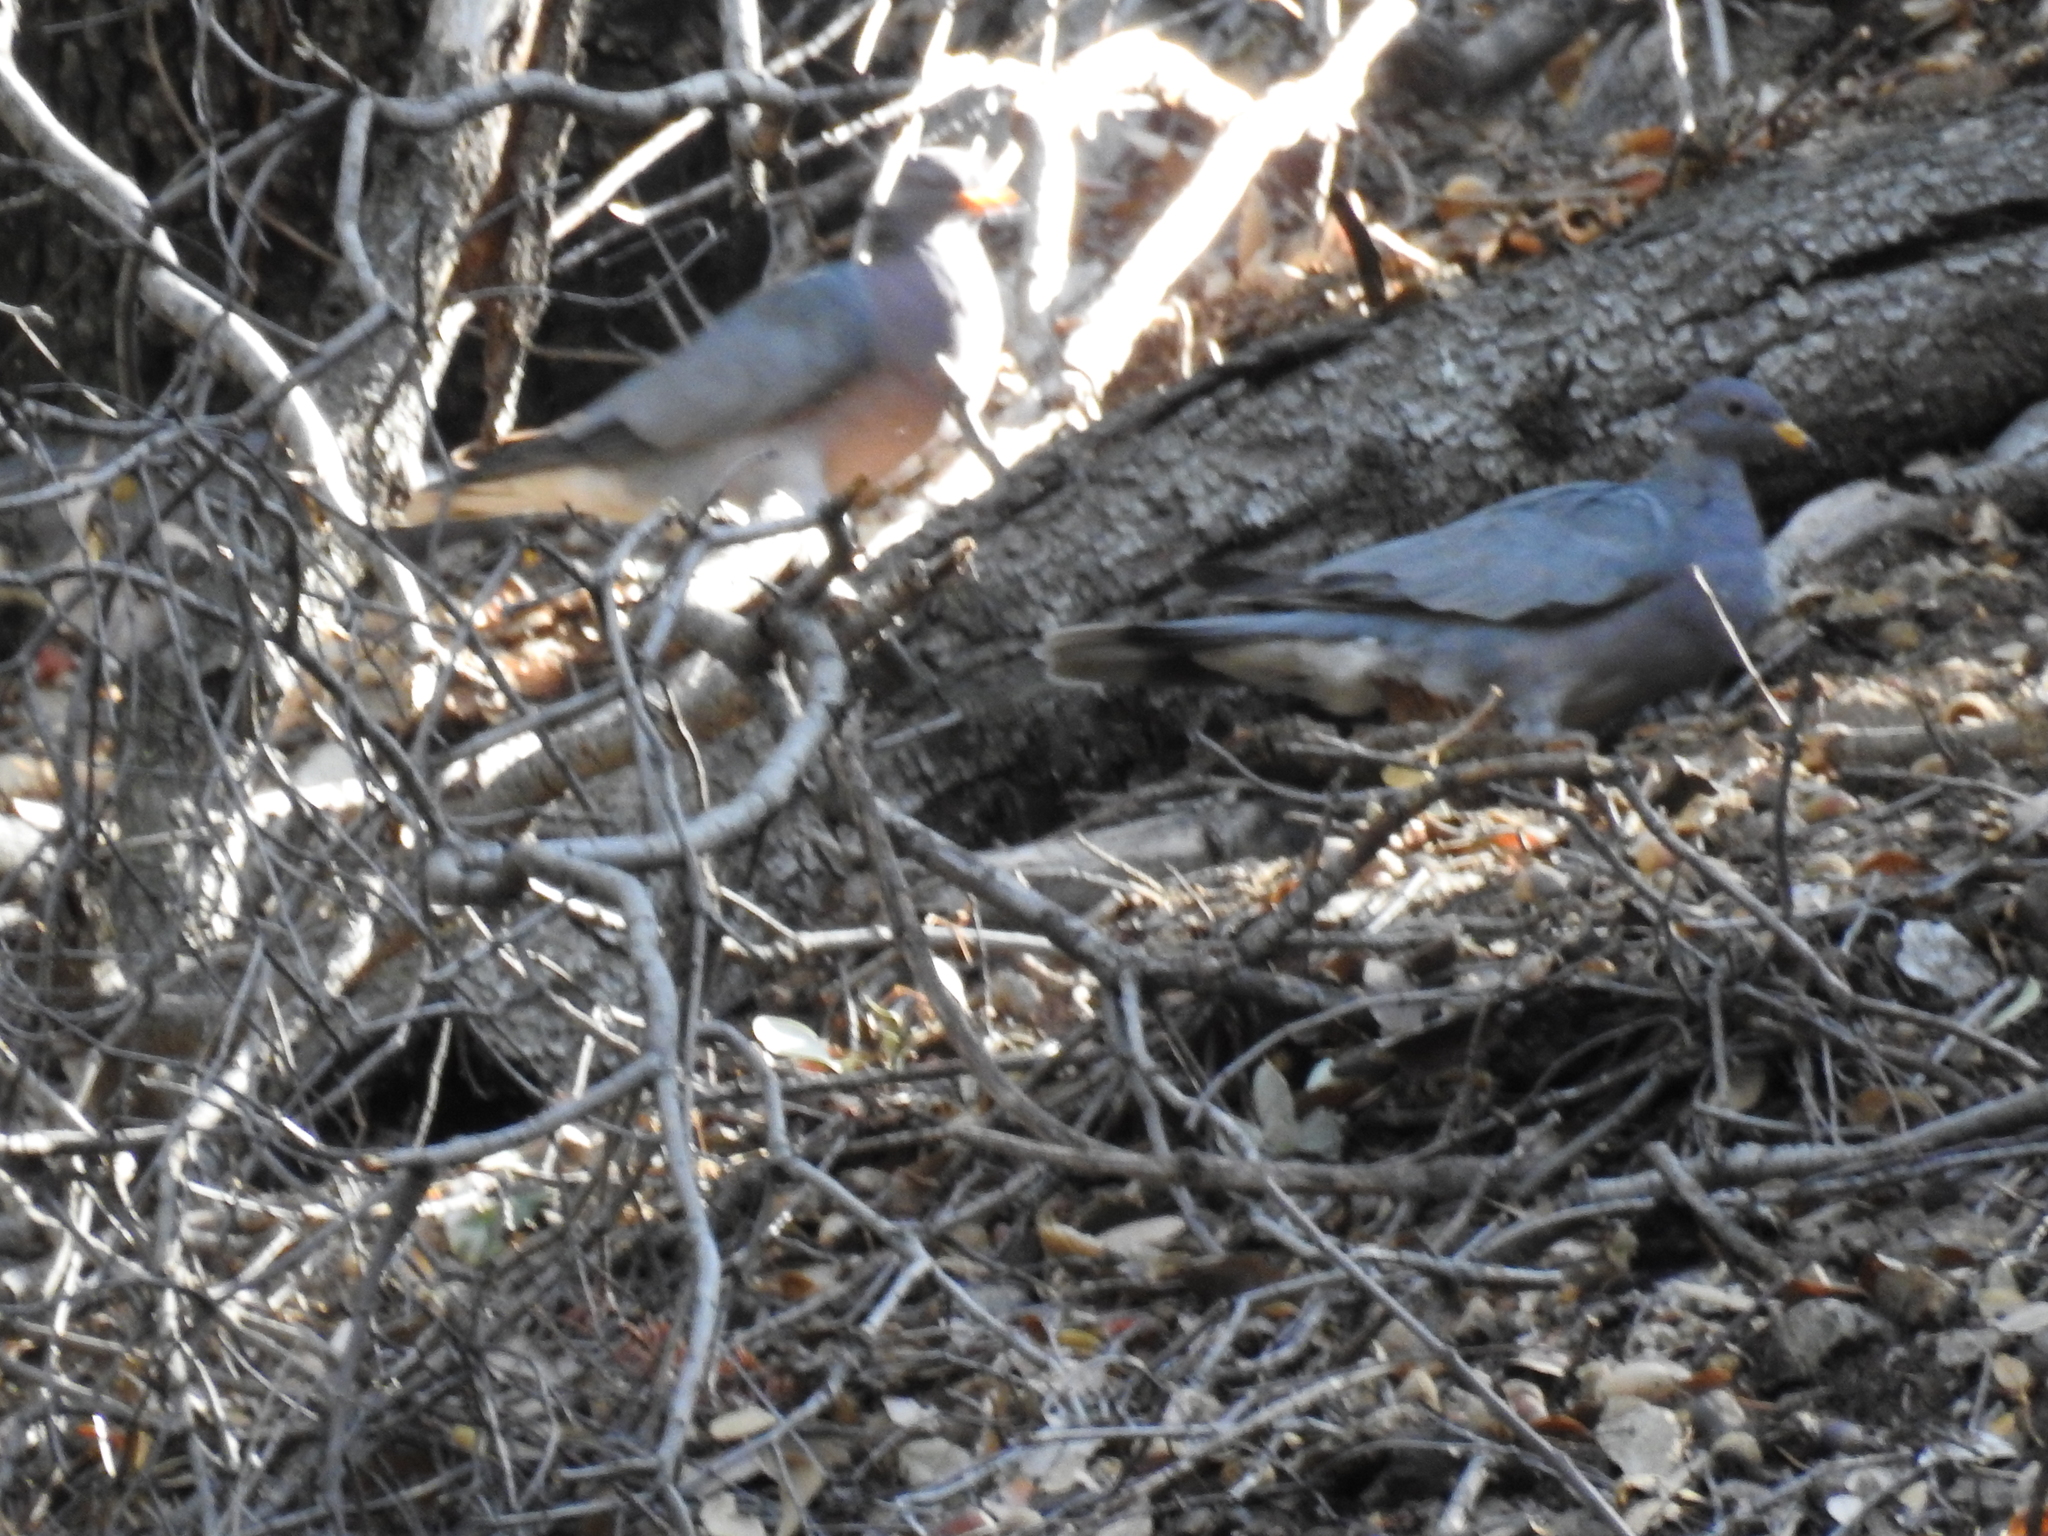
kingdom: Animalia
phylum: Chordata
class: Aves
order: Columbiformes
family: Columbidae
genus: Patagioenas
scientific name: Patagioenas fasciata
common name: Band-tailed pigeon
